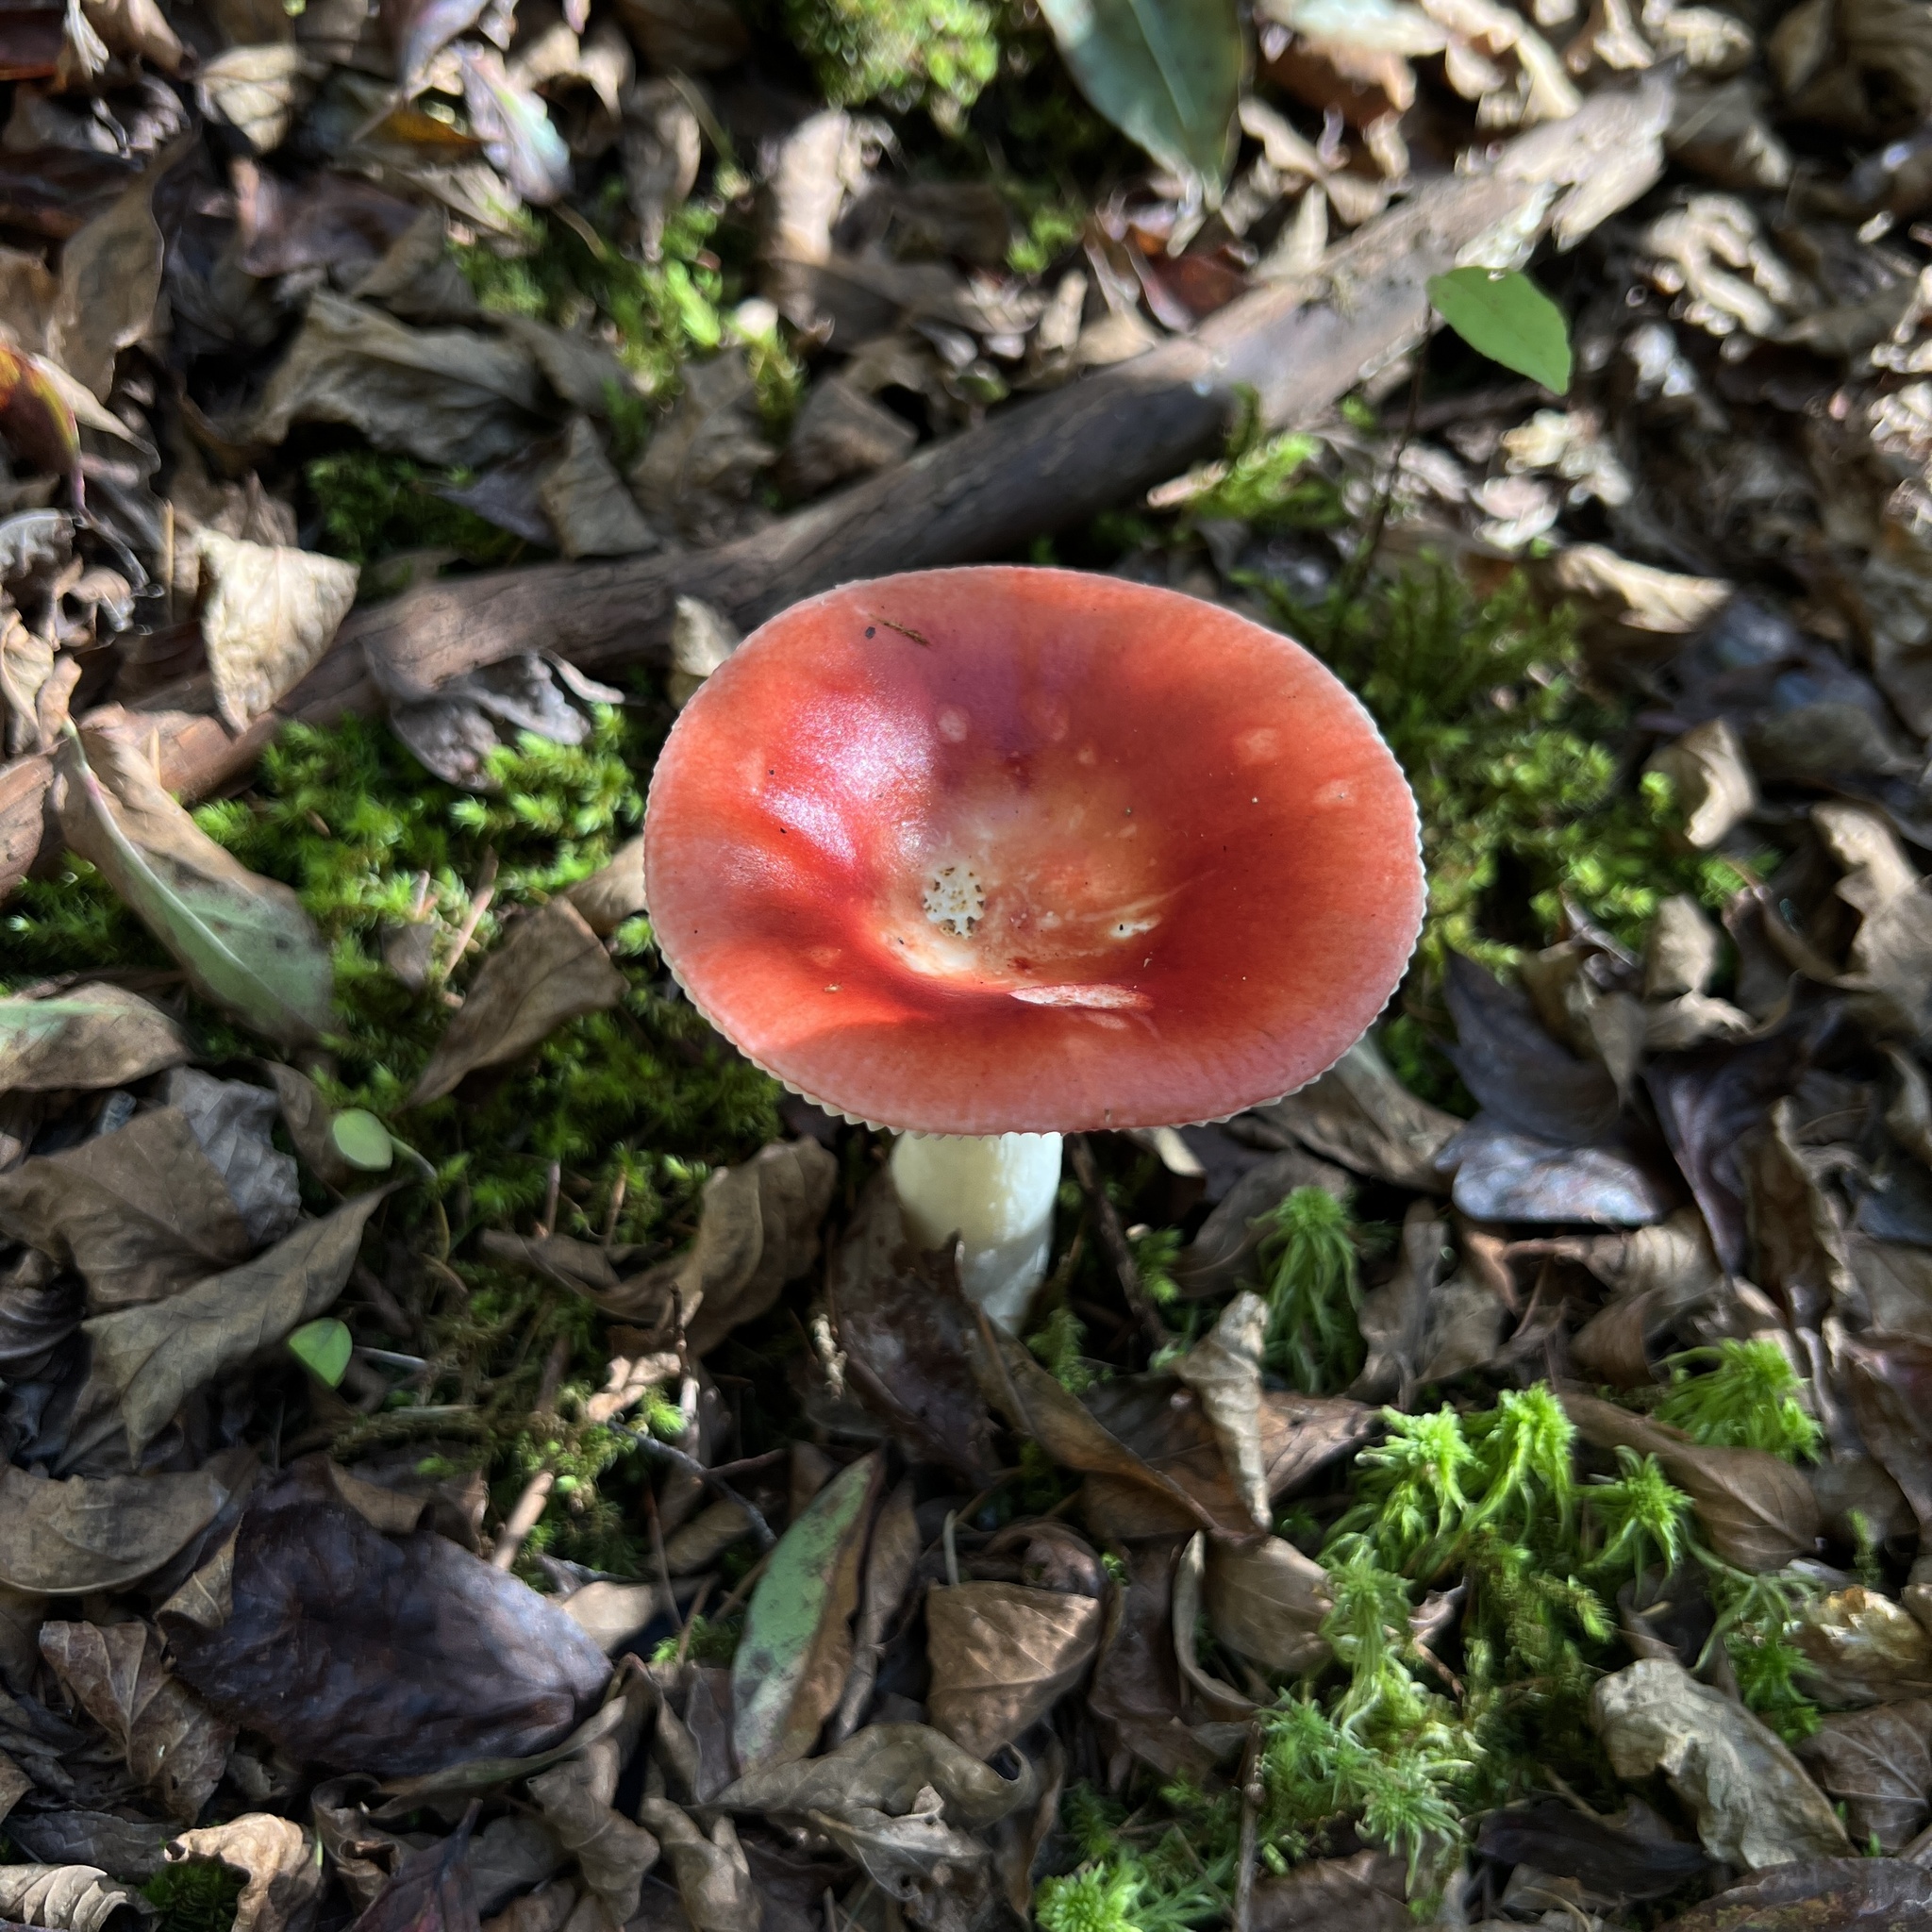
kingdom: Fungi
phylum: Basidiomycota
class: Agaricomycetes
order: Russulales
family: Russulaceae
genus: Russula
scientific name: Russula
